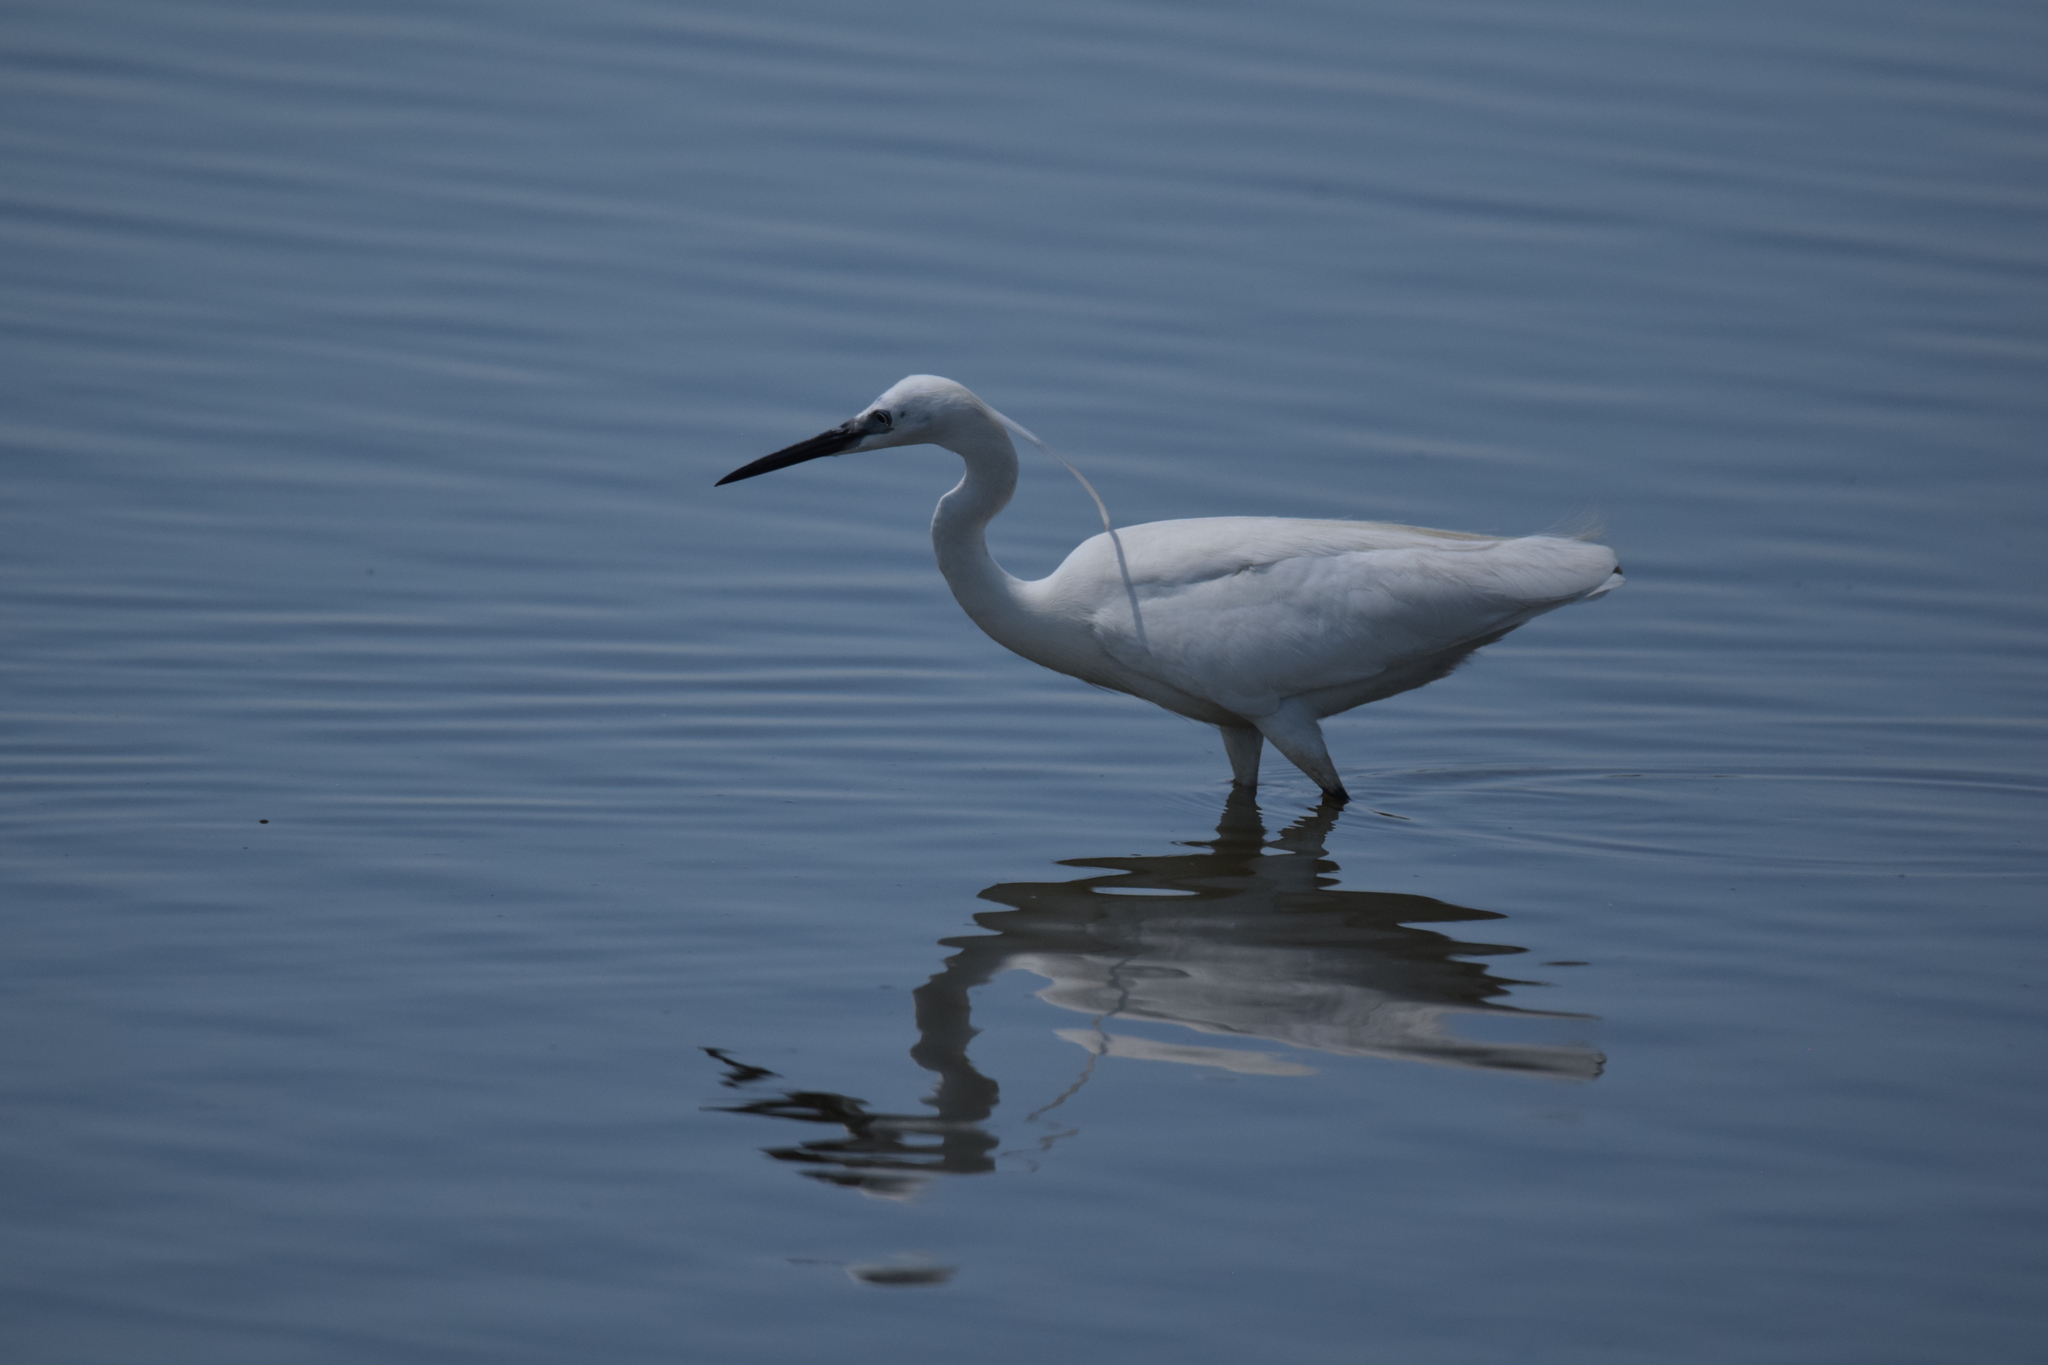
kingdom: Animalia
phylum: Chordata
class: Aves
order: Pelecaniformes
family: Ardeidae
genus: Egretta
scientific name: Egretta garzetta
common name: Little egret
